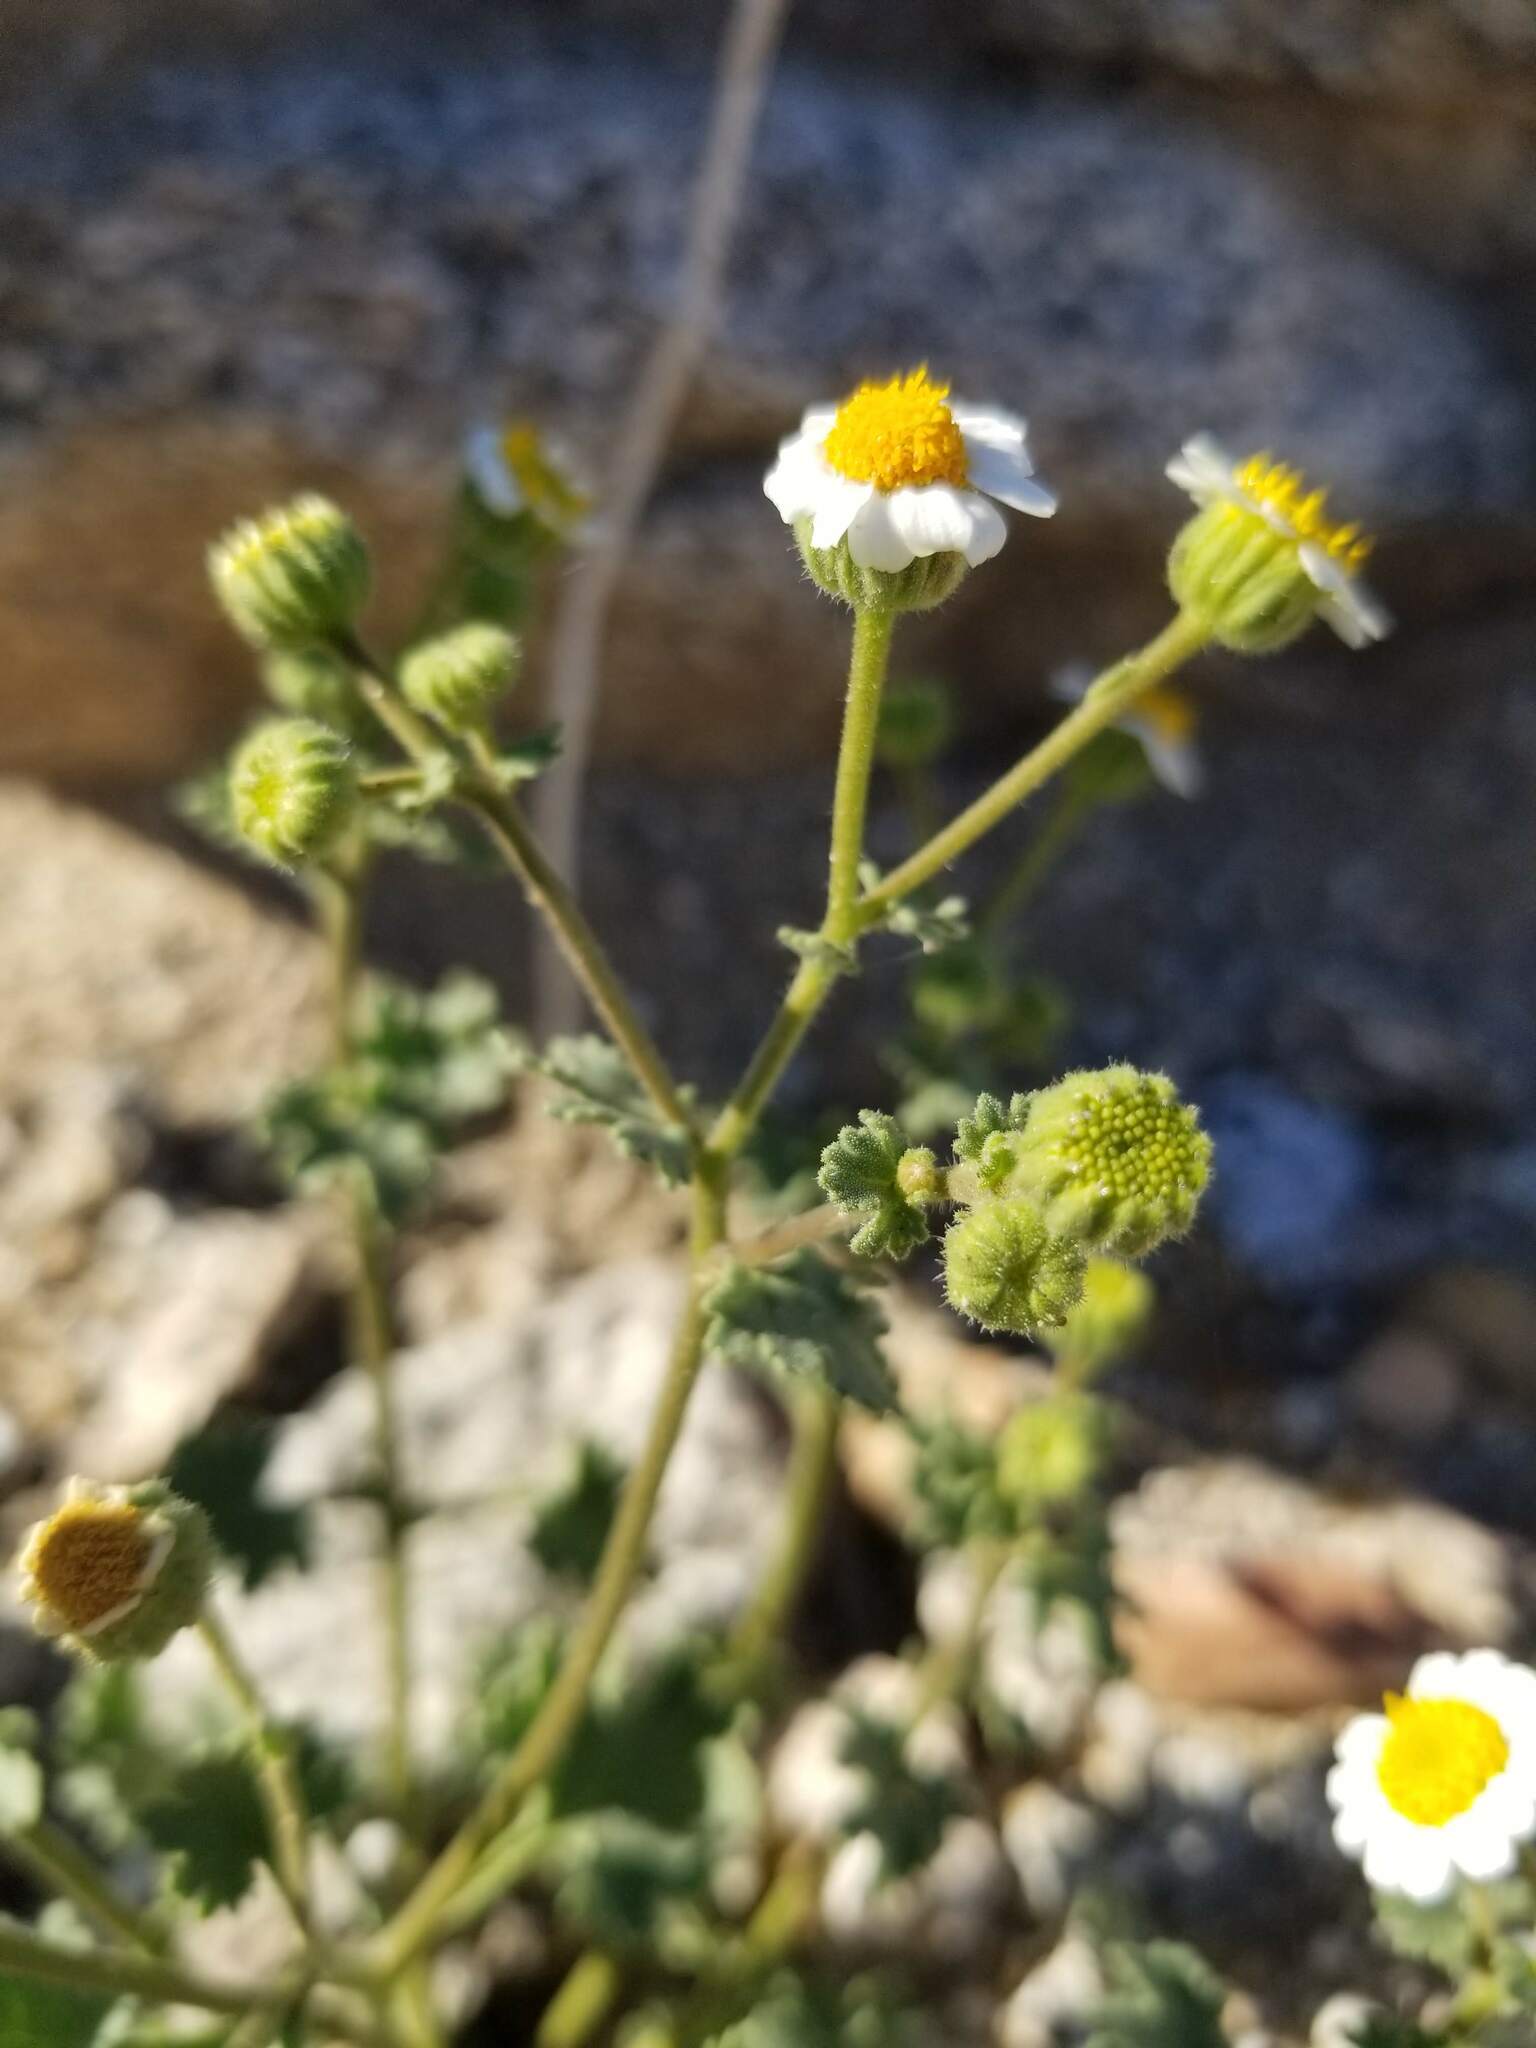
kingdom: Plantae
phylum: Tracheophyta
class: Magnoliopsida
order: Asterales
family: Asteraceae
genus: Laphamia
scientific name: Laphamia emoryi
